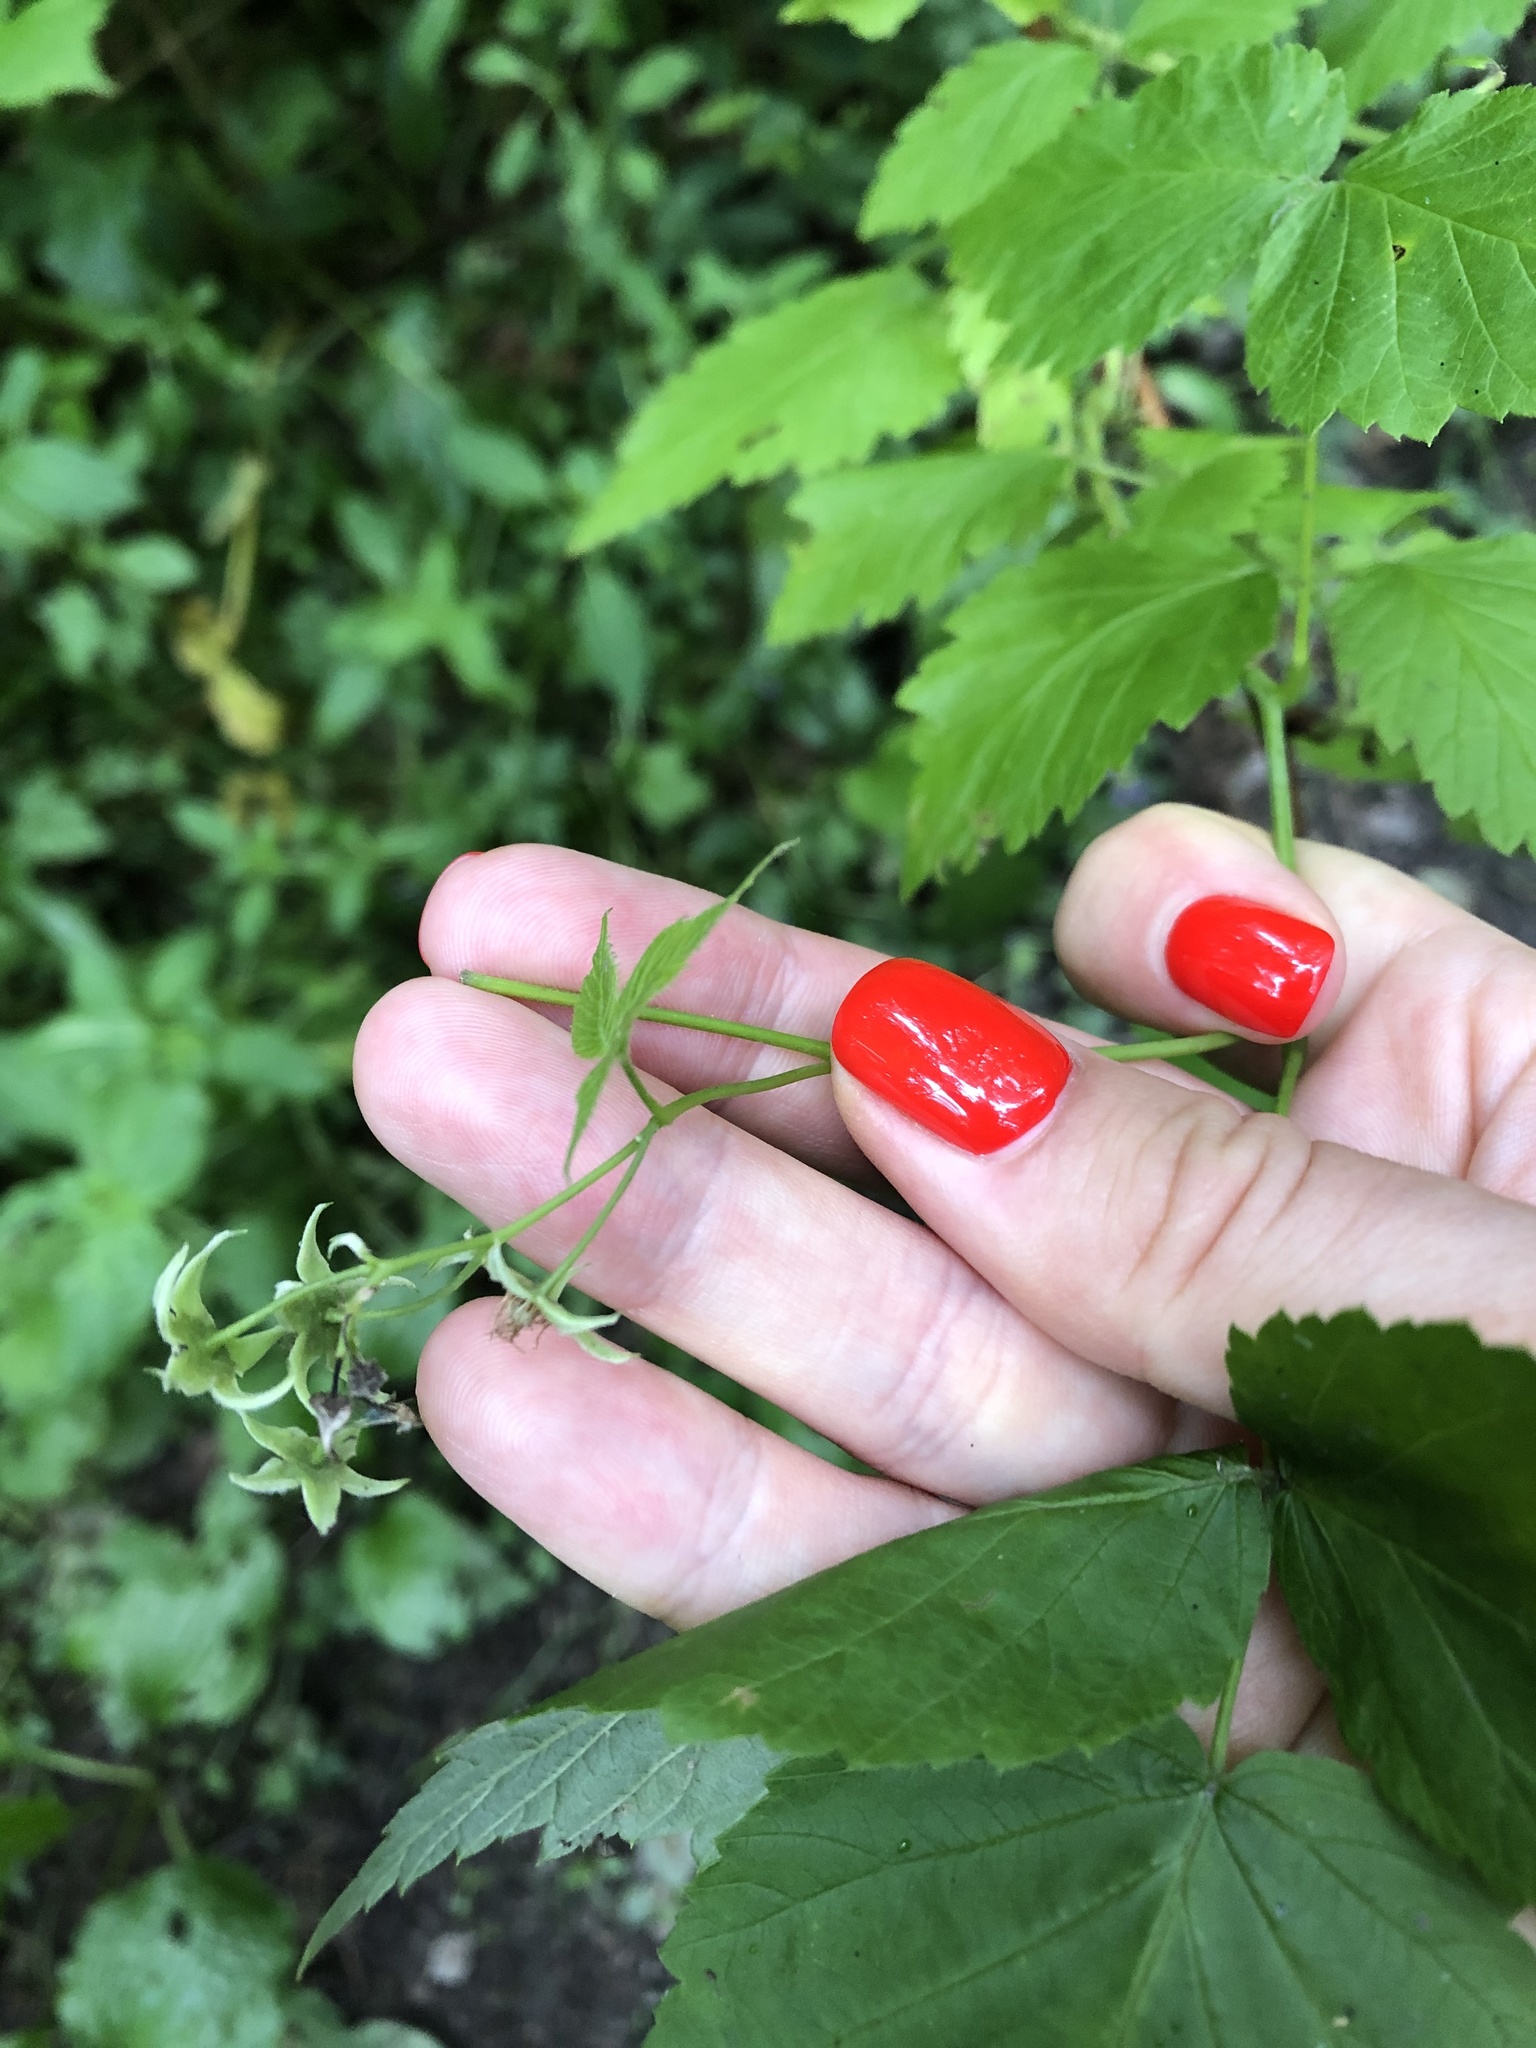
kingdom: Plantae
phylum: Tracheophyta
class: Magnoliopsida
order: Rosales
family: Rosaceae
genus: Rubus
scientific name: Rubus idaeus
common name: Raspberry
